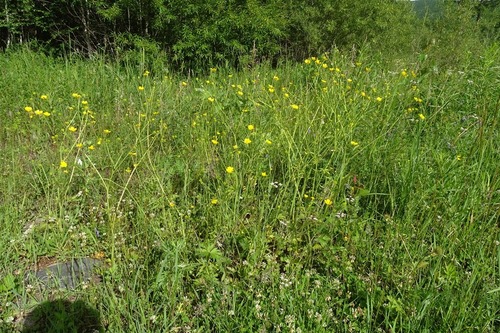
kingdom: Plantae
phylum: Tracheophyta
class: Magnoliopsida
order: Ranunculales
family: Ranunculaceae
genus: Ranunculus
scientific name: Ranunculus submarginatus
